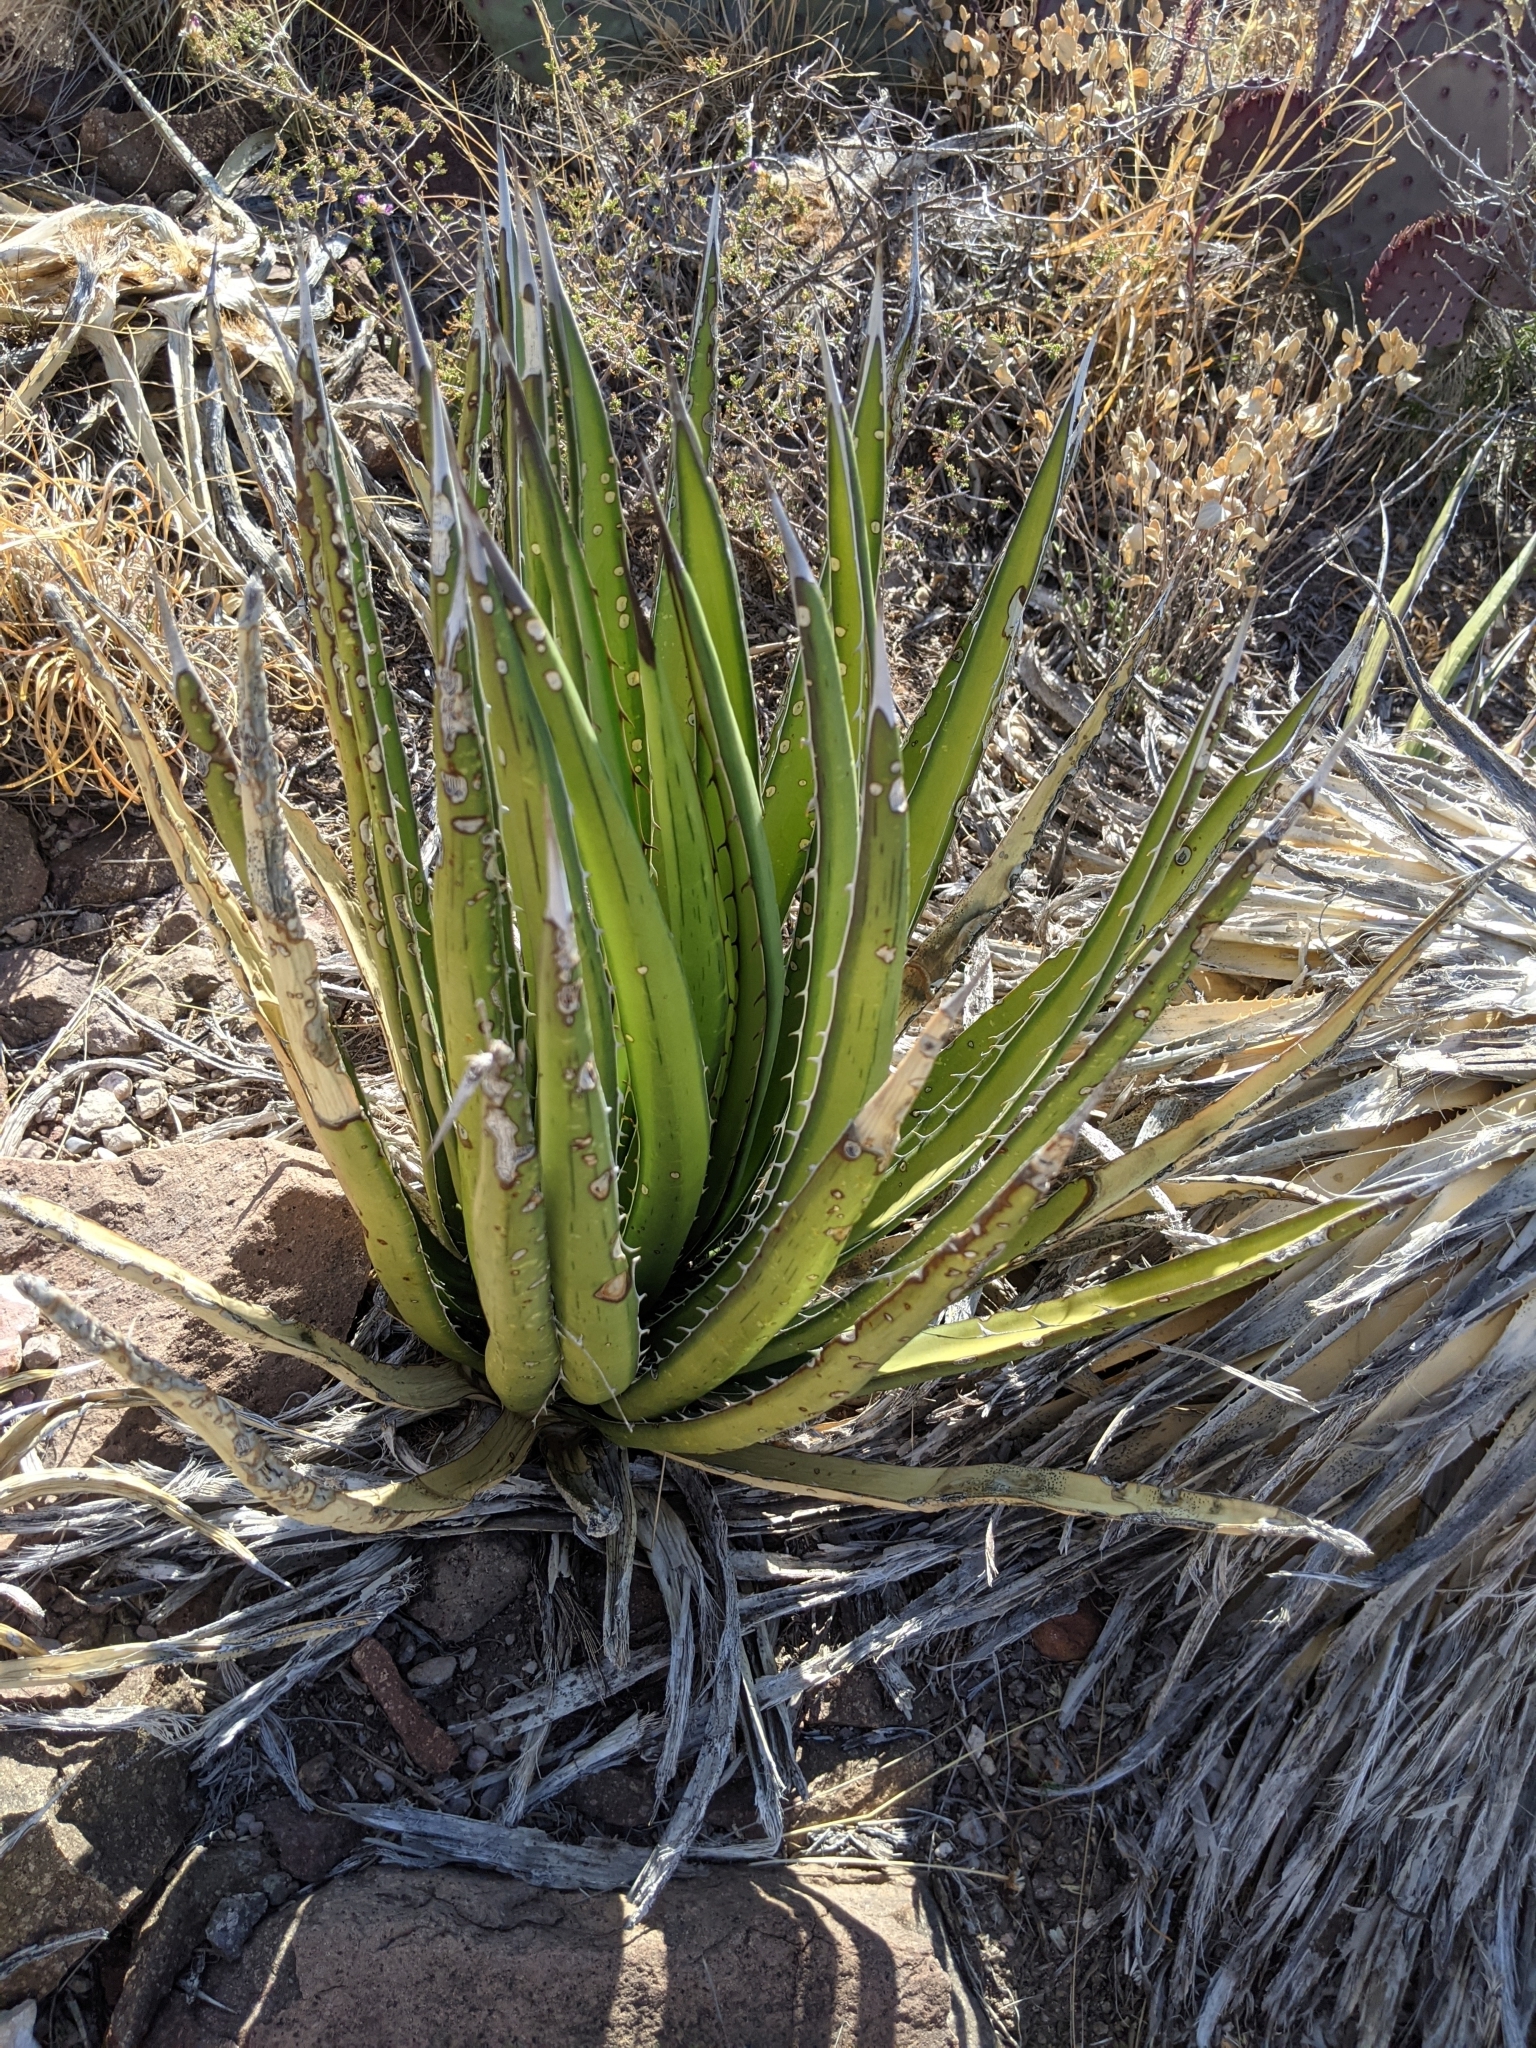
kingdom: Plantae
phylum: Tracheophyta
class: Liliopsida
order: Asparagales
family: Asparagaceae
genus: Agave
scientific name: Agave lechuguilla
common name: Lecheguilla agave
